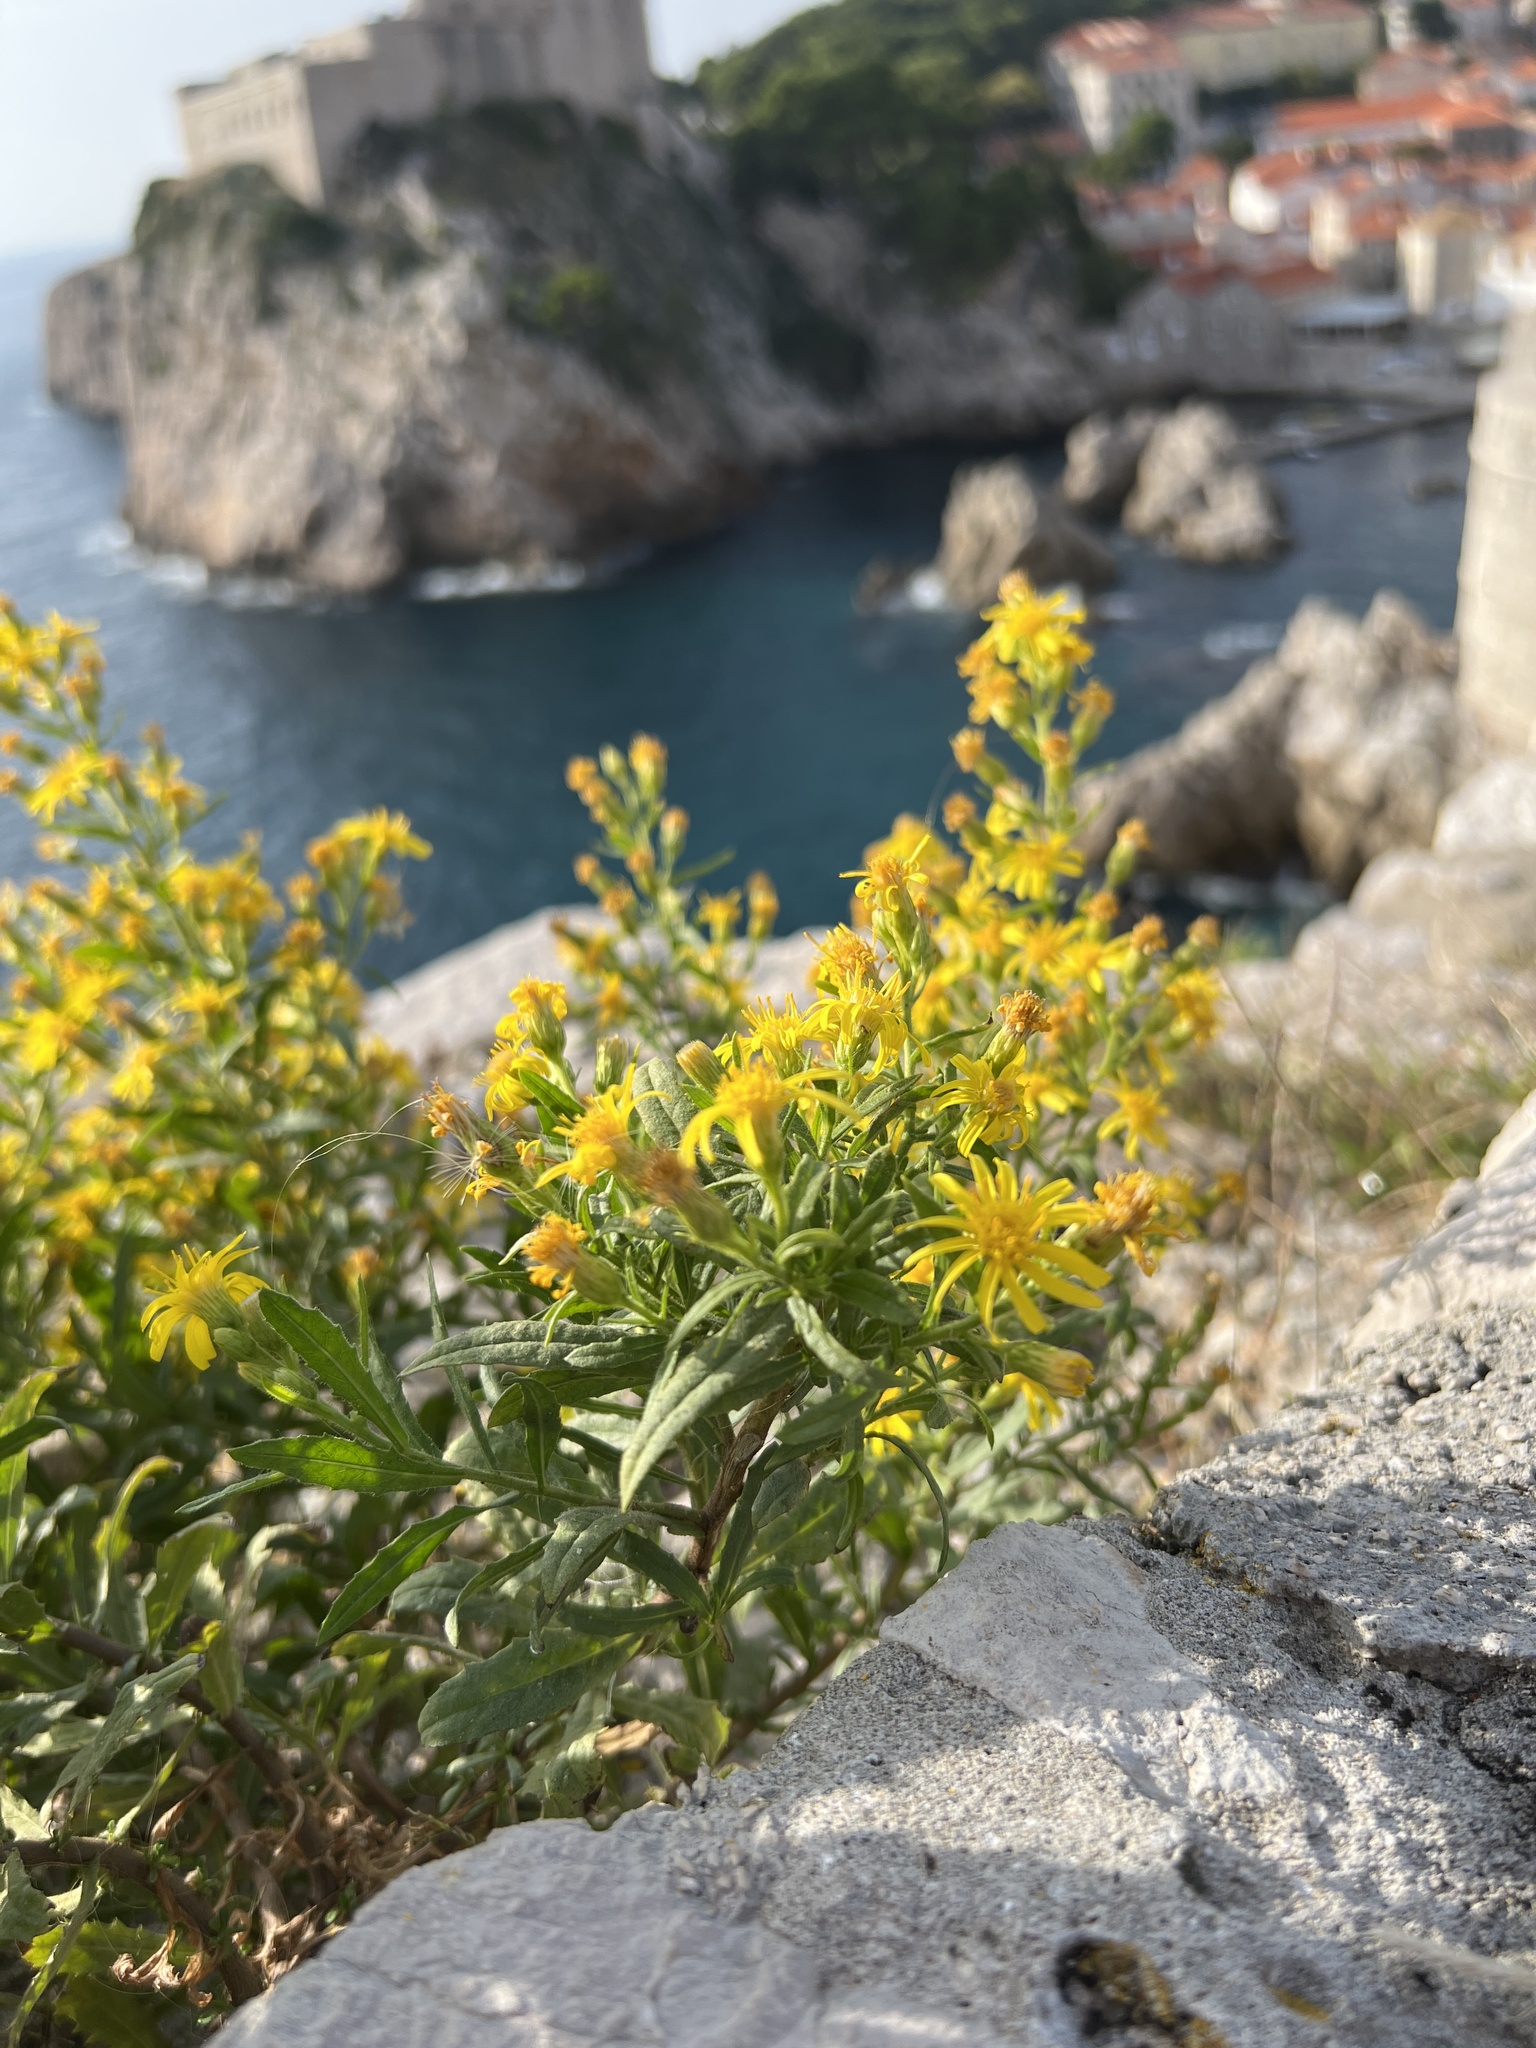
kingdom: Plantae
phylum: Tracheophyta
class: Magnoliopsida
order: Asterales
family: Asteraceae
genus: Dittrichia
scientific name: Dittrichia viscosa
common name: Woody fleabane
